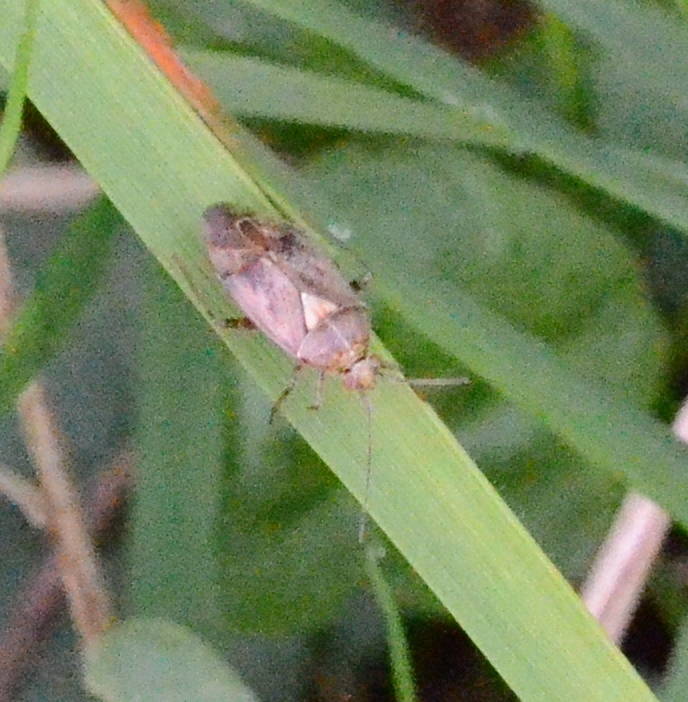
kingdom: Animalia
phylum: Arthropoda
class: Insecta
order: Hemiptera
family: Miridae
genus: Lygus
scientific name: Lygus rugulipennis
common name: European tarnished plant bug
